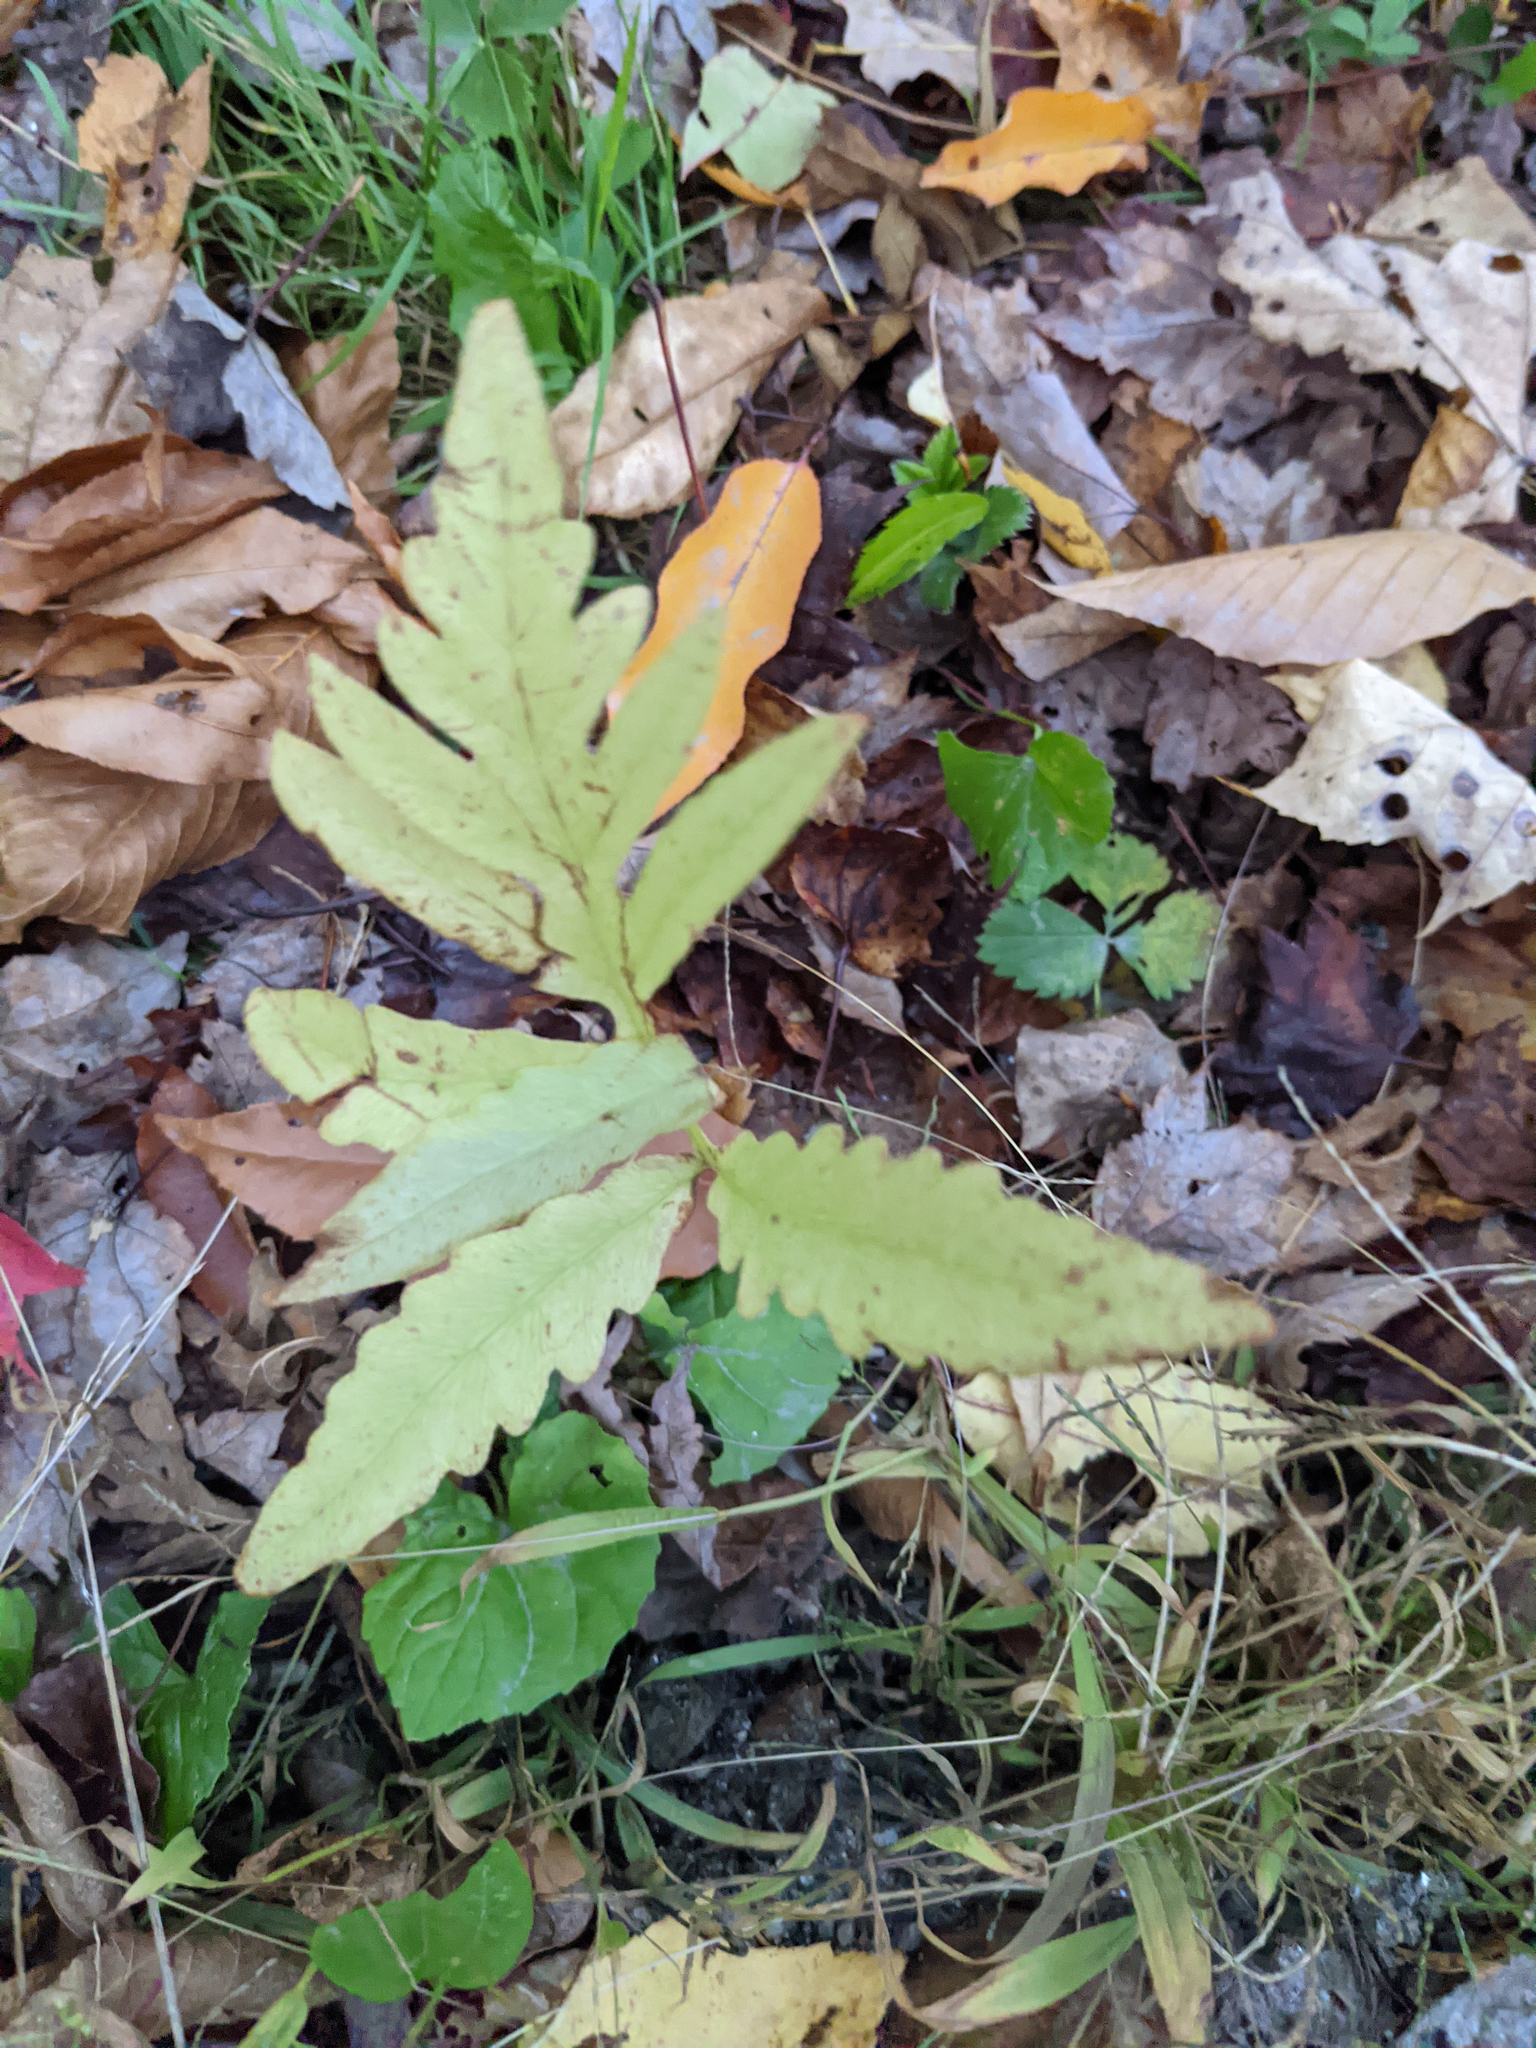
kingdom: Plantae
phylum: Tracheophyta
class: Polypodiopsida
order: Polypodiales
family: Onocleaceae
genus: Onoclea
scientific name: Onoclea sensibilis
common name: Sensitive fern
